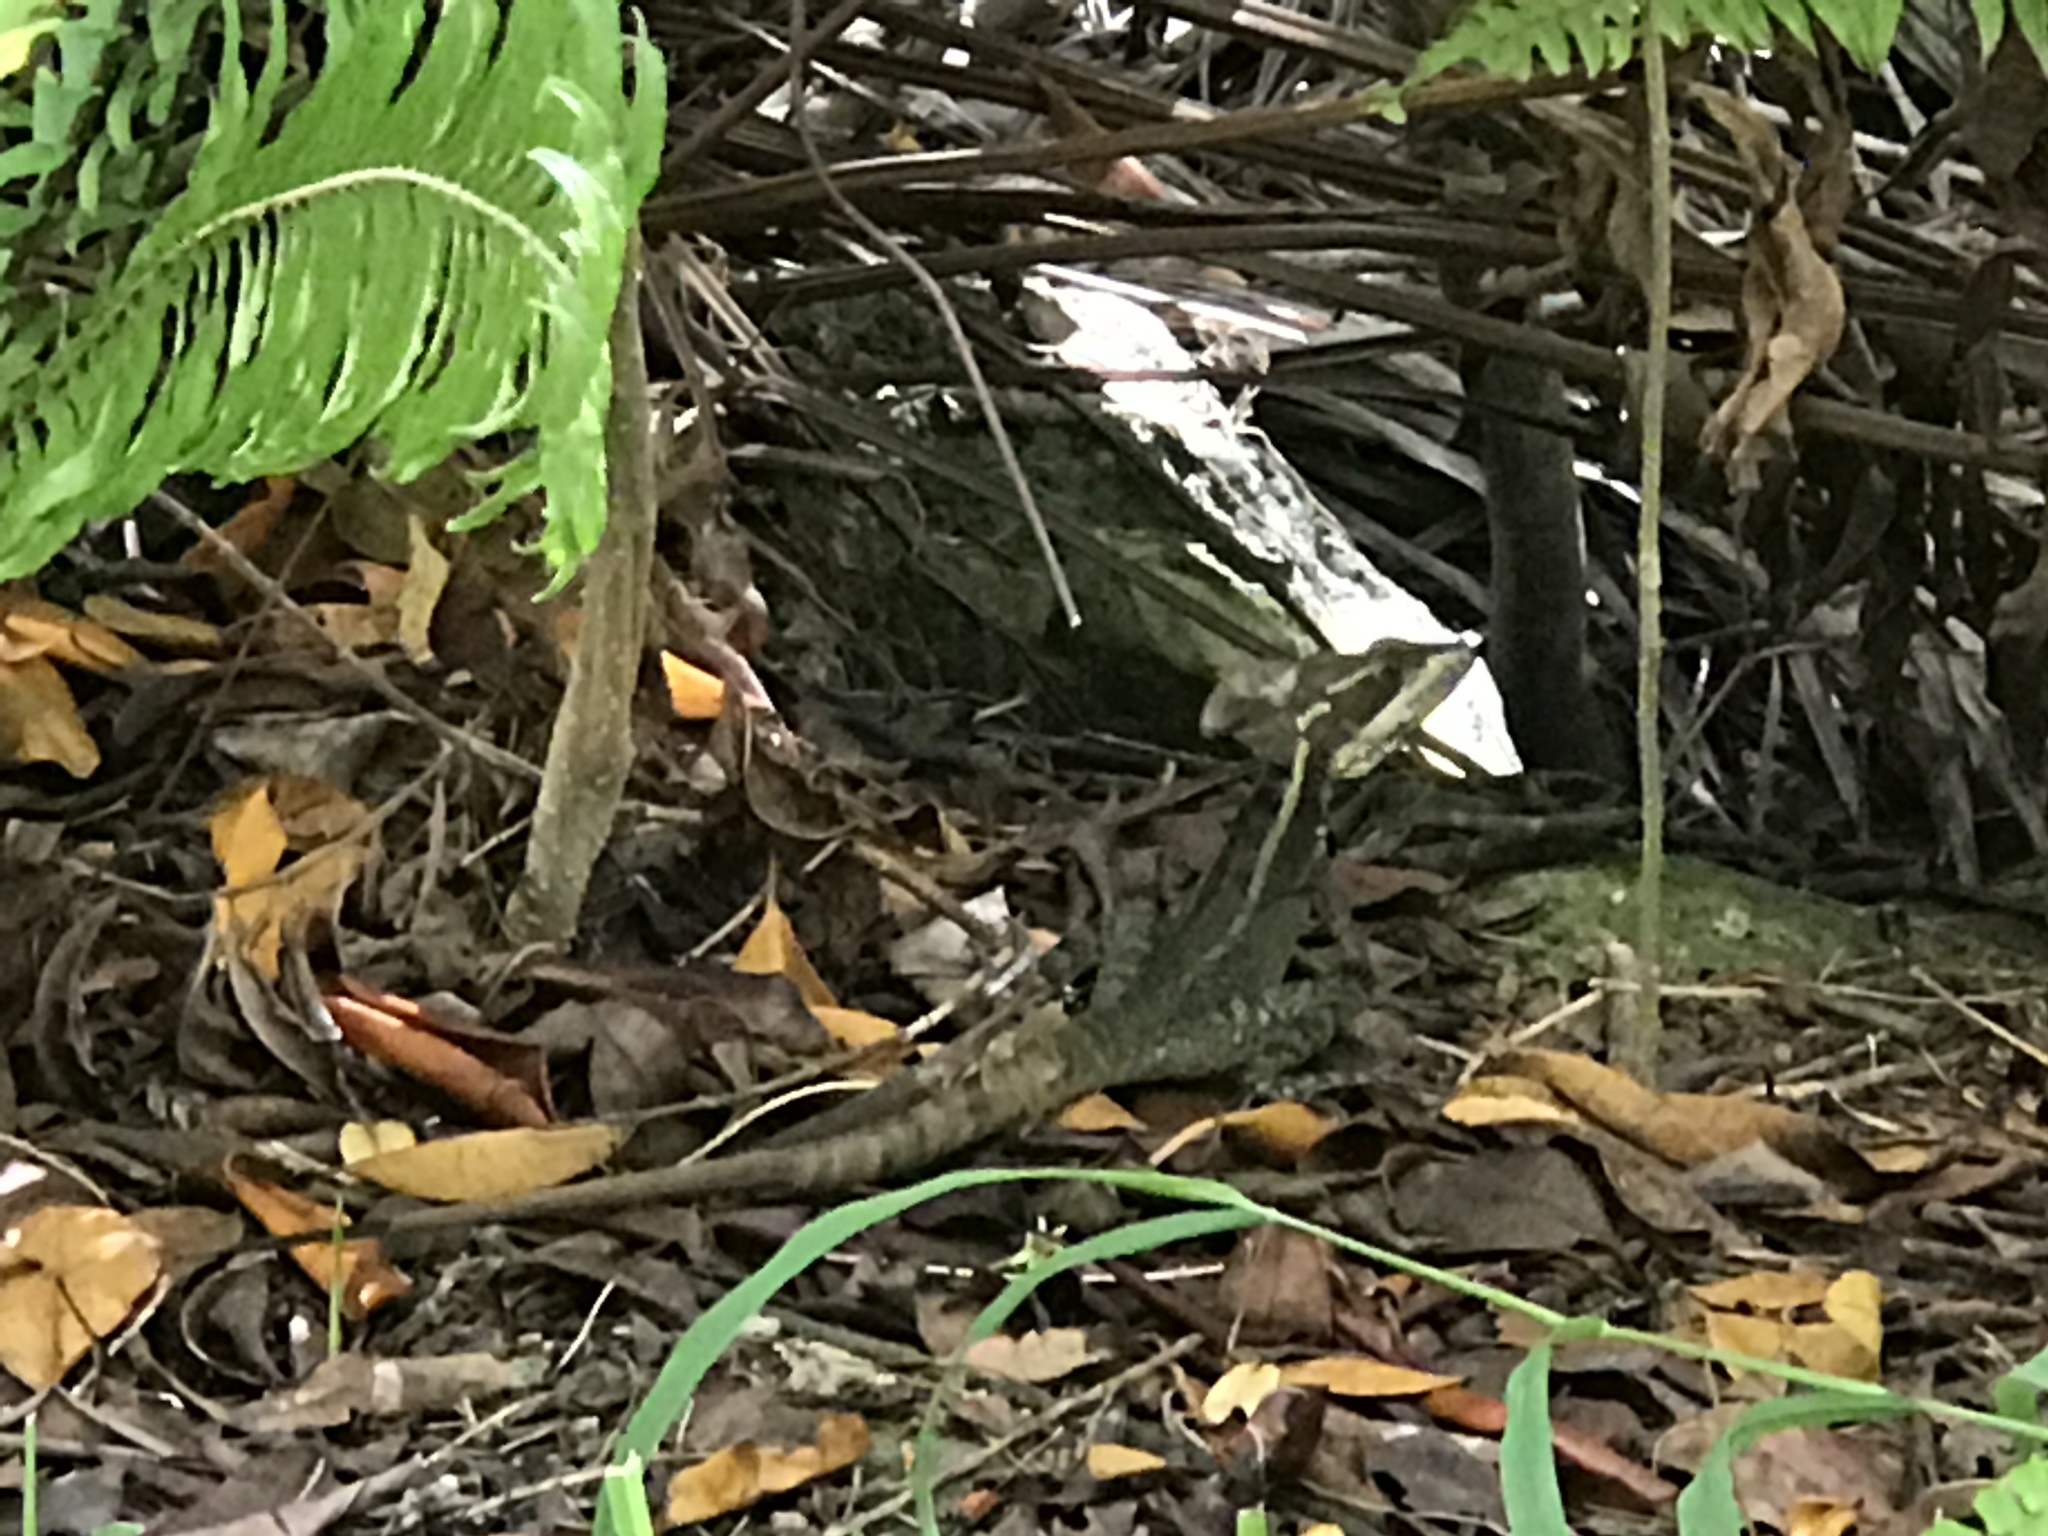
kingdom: Animalia
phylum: Chordata
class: Squamata
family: Corytophanidae
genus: Basiliscus
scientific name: Basiliscus vittatus
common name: Brown basilisk
